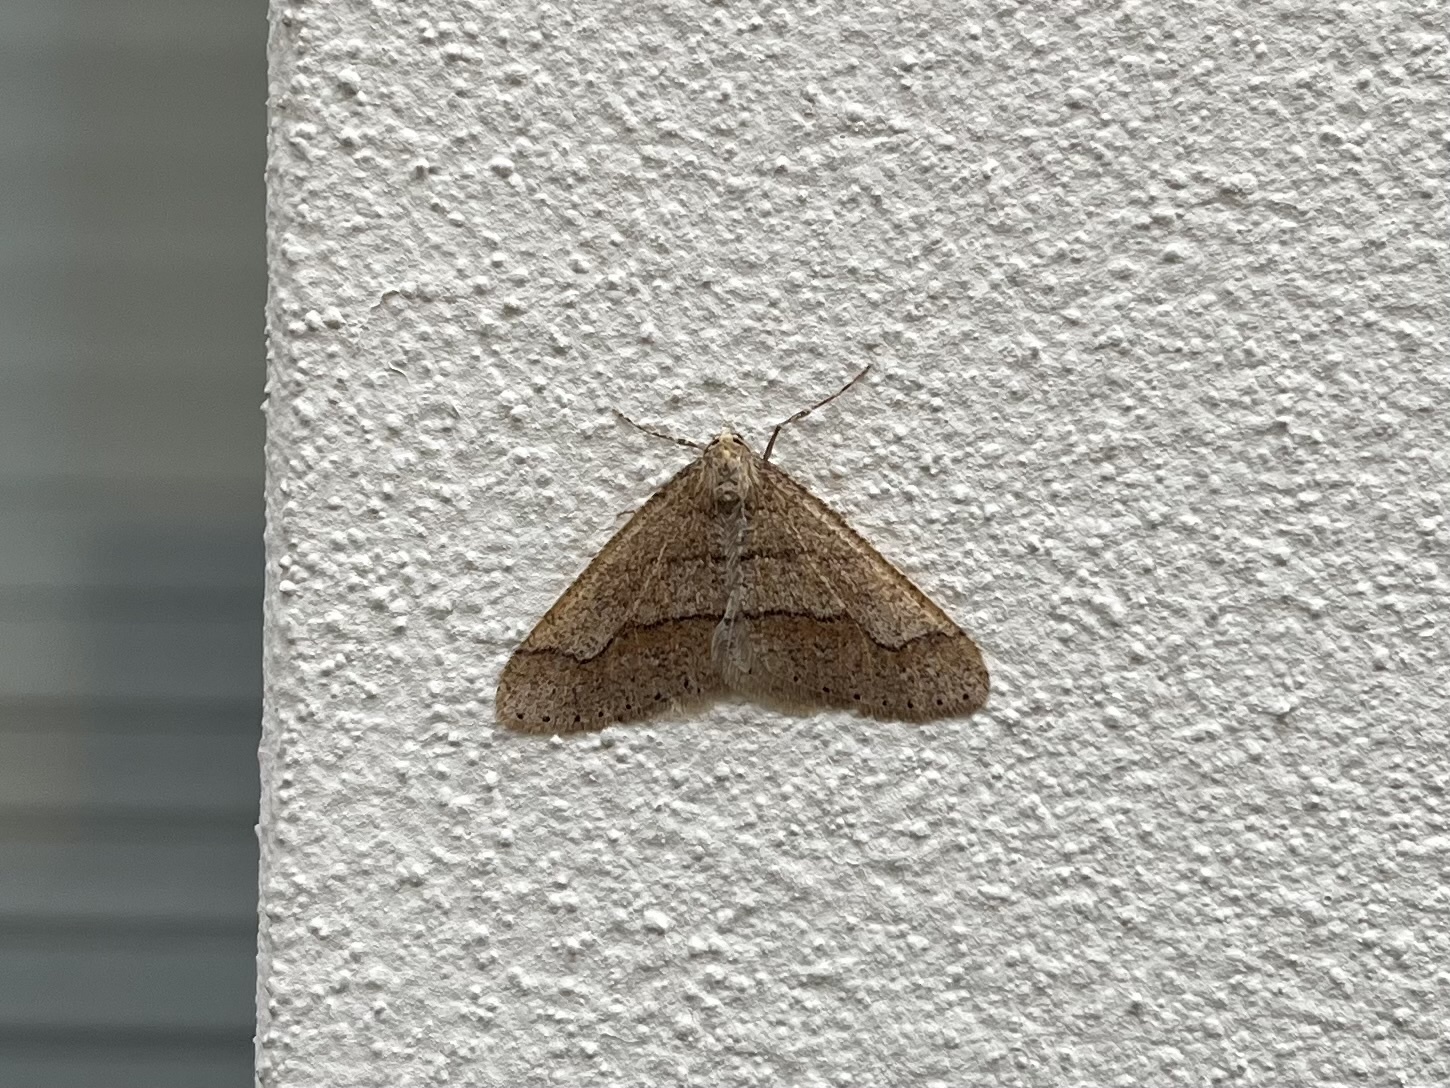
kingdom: Animalia
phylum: Arthropoda
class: Insecta
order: Lepidoptera
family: Geometridae
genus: Agriopis
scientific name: Agriopis marginaria
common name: Dotted border
